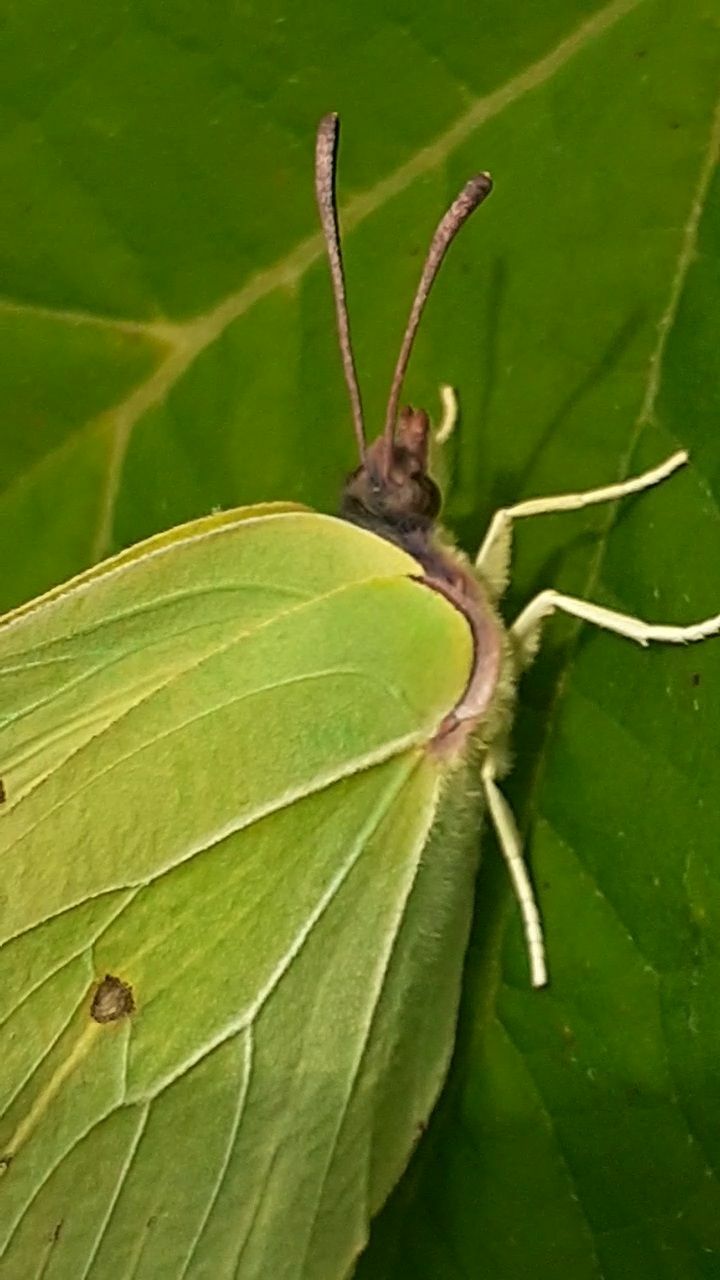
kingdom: Animalia
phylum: Arthropoda
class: Insecta
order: Lepidoptera
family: Pieridae
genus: Gonepteryx
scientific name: Gonepteryx rhamni
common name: Brimstone
